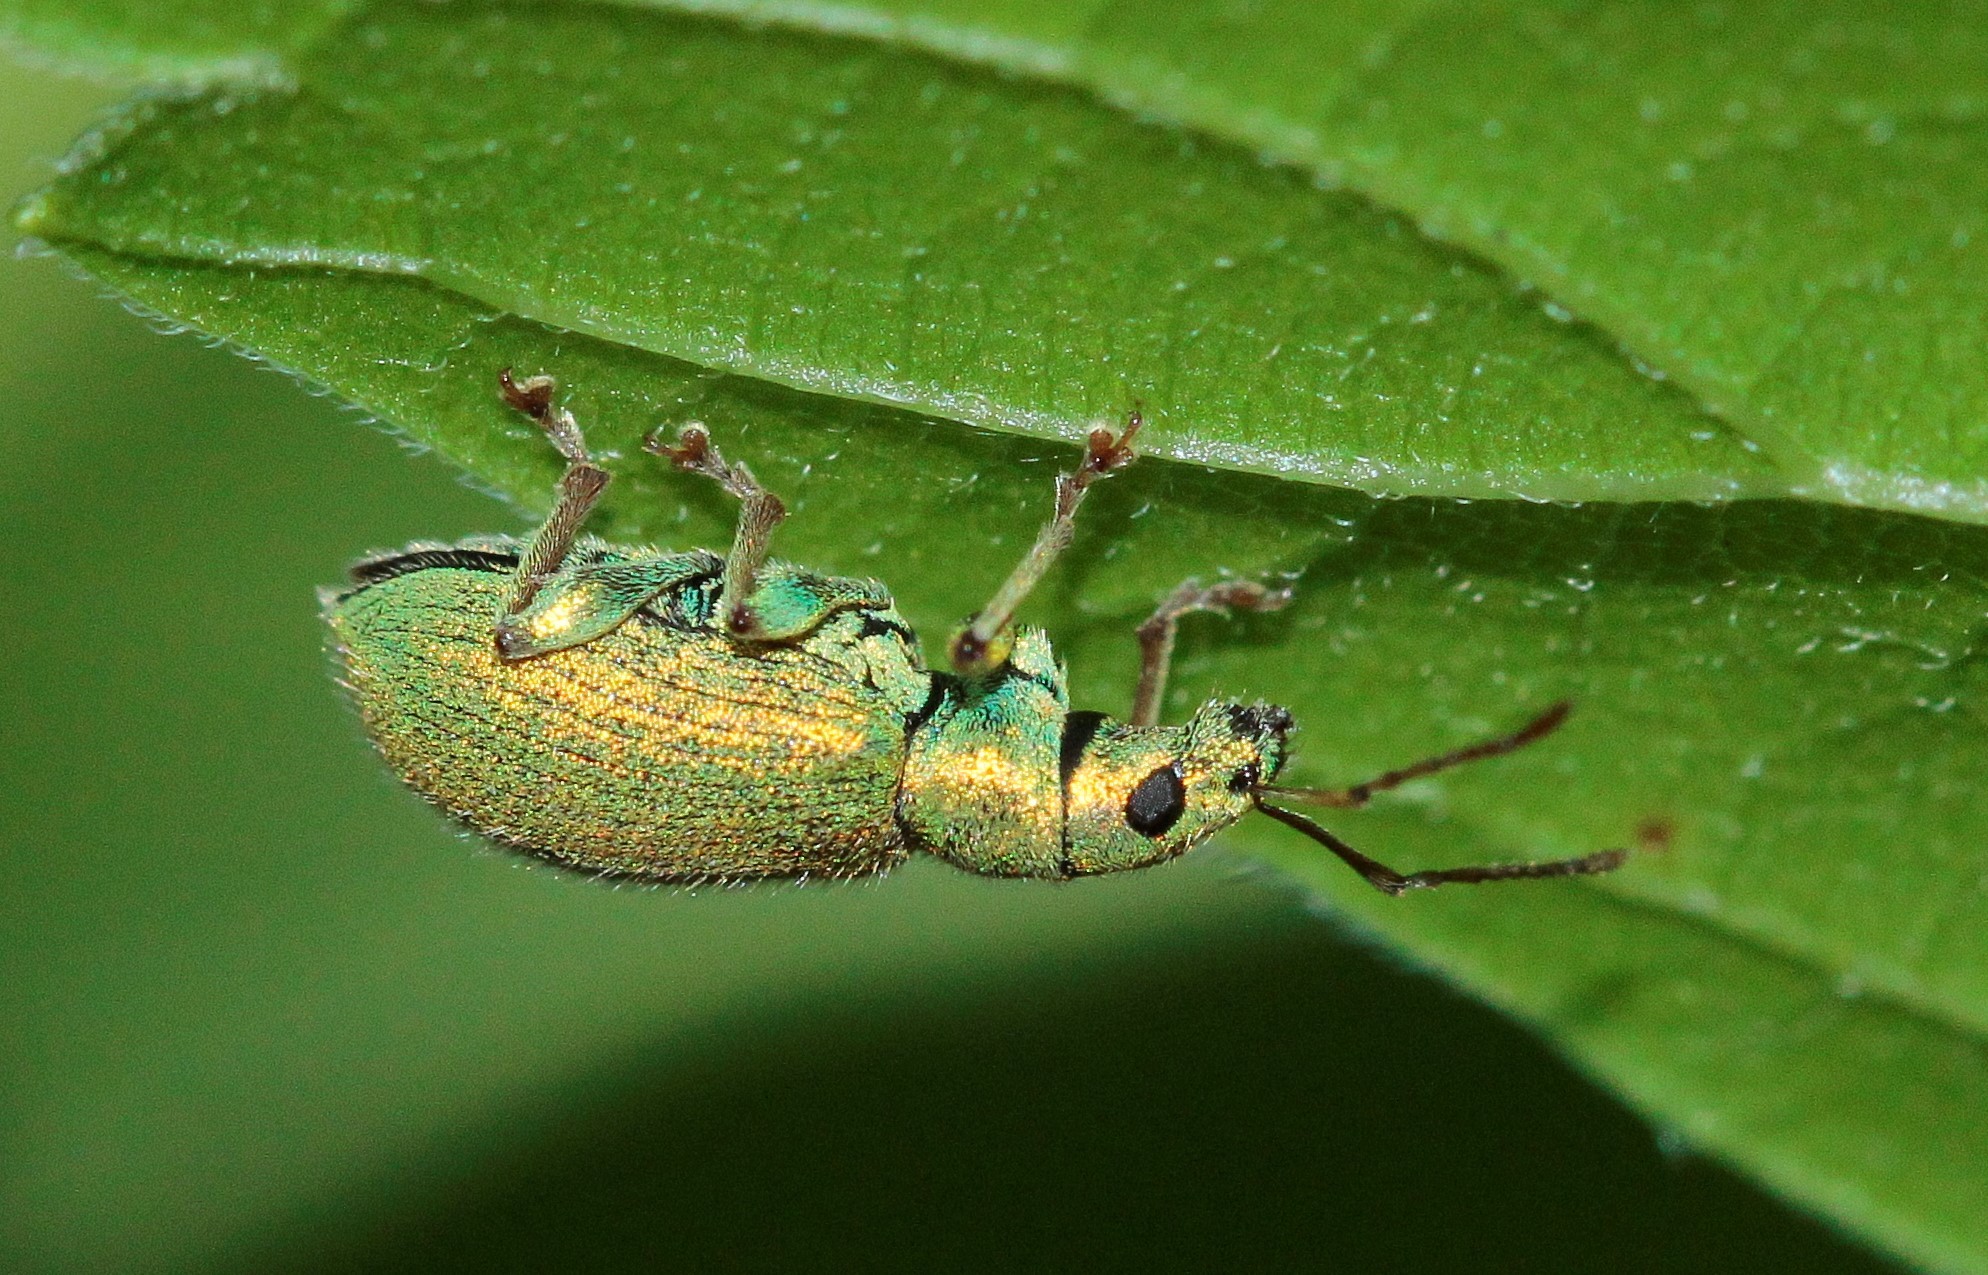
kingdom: Animalia
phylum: Arthropoda
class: Insecta
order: Coleoptera
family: Curculionidae
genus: Phyllobius
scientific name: Phyllobius argentatus
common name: Silver-green leaf weevil
